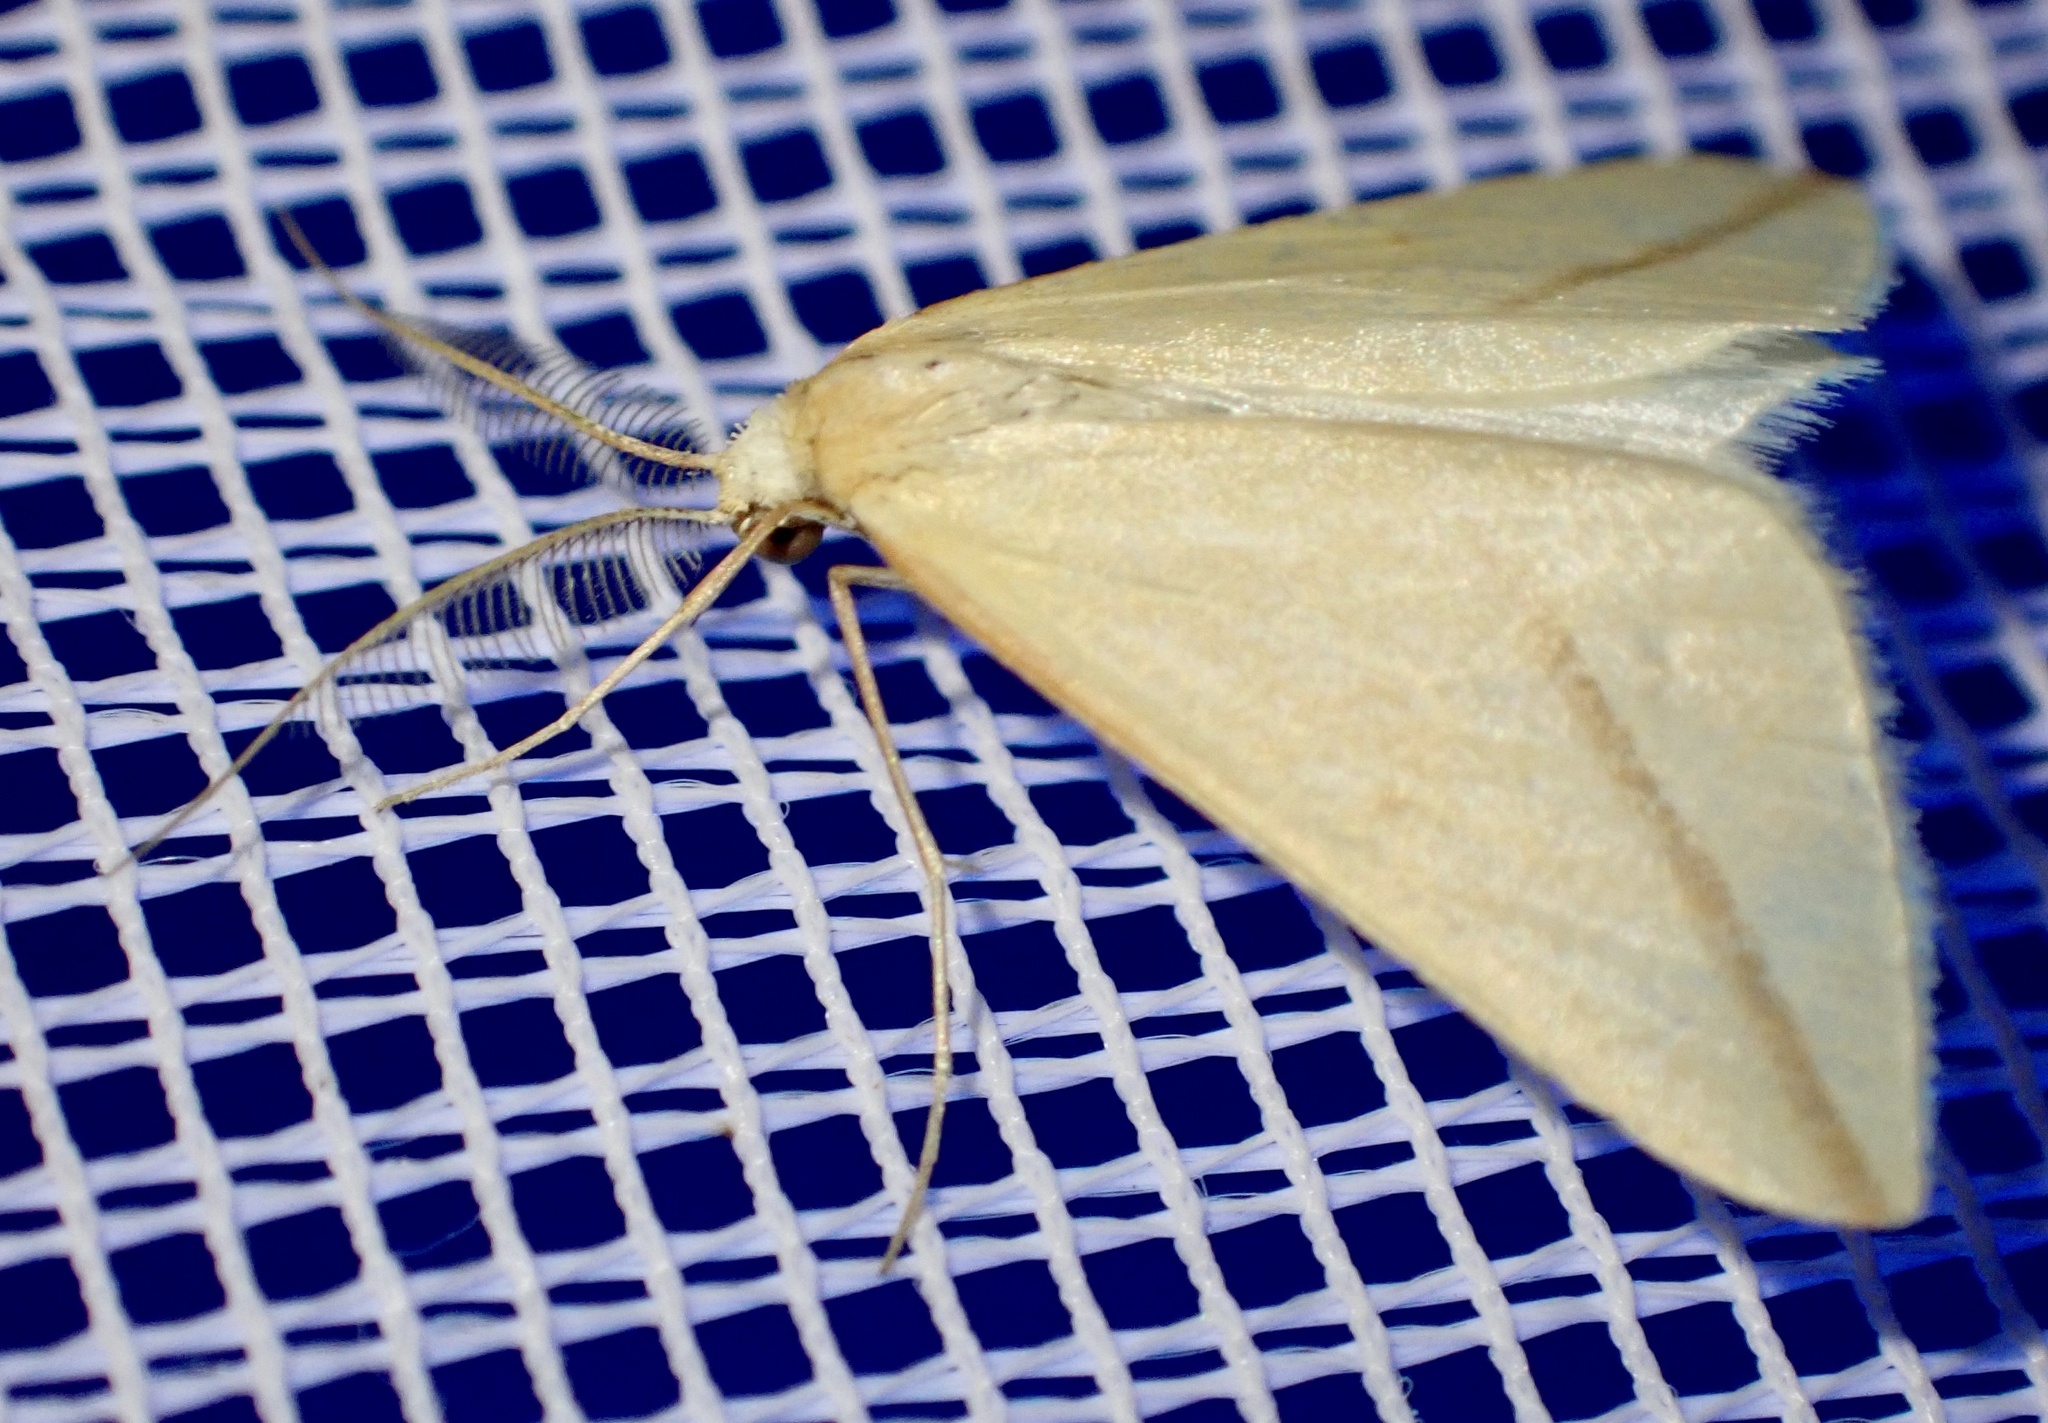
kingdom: Animalia
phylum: Arthropoda
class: Insecta
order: Lepidoptera
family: Geometridae
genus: Rhodometra
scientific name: Rhodometra sacraria
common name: Vestal
